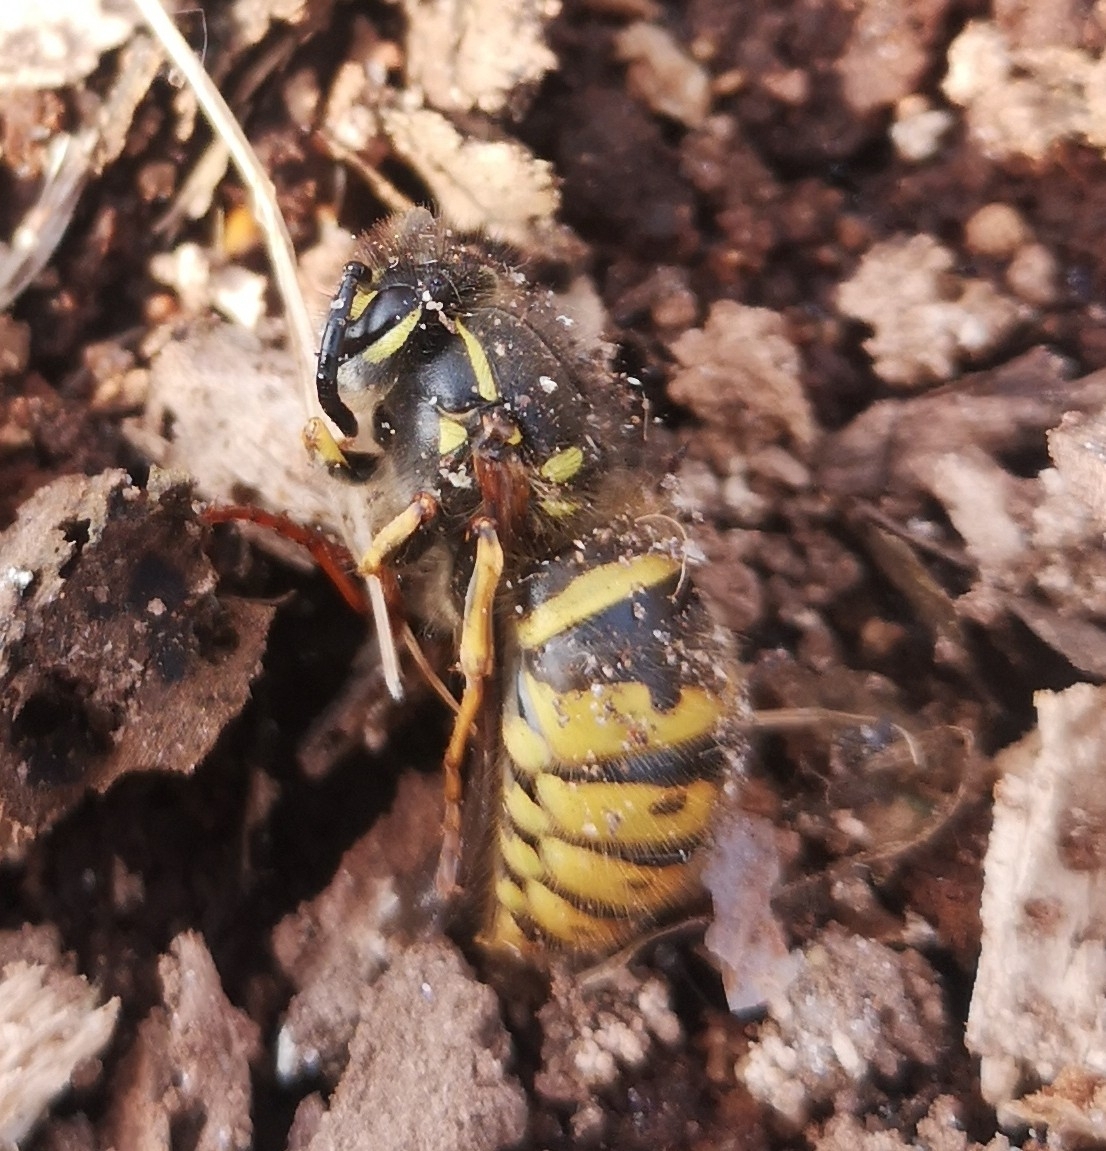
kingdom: Animalia
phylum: Arthropoda
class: Insecta
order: Hymenoptera
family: Vespidae
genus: Vespula
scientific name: Vespula vulgaris
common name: Common wasp
